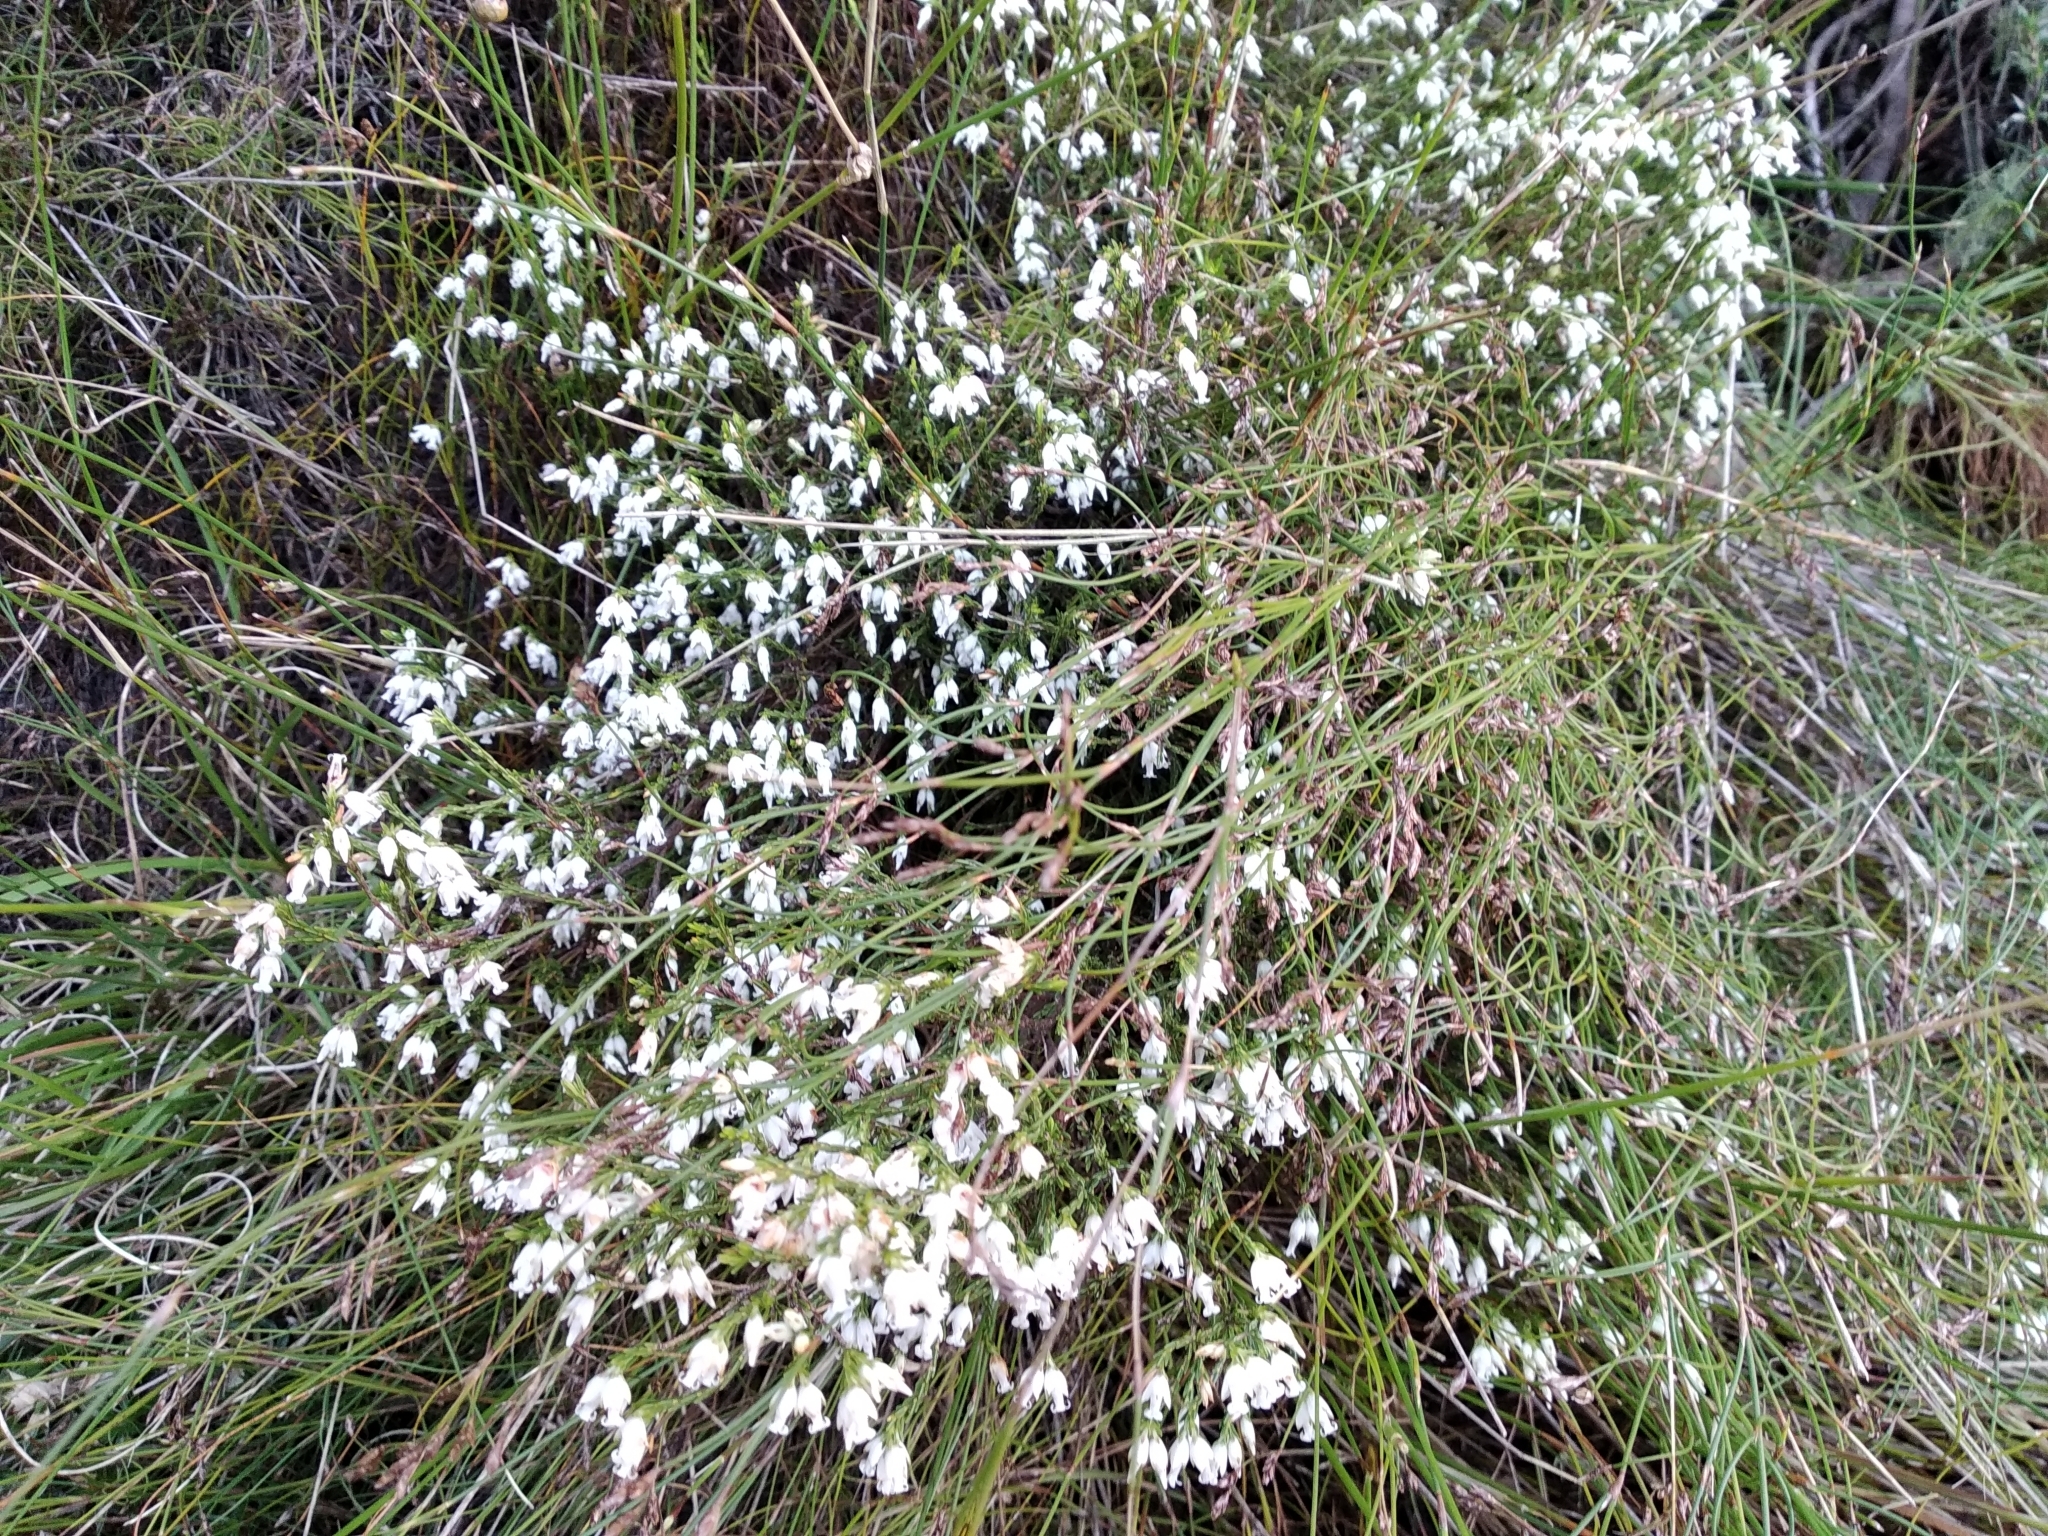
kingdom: Plantae
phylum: Tracheophyta
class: Magnoliopsida
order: Ericales
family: Ericaceae
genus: Erica
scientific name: Erica lutea
